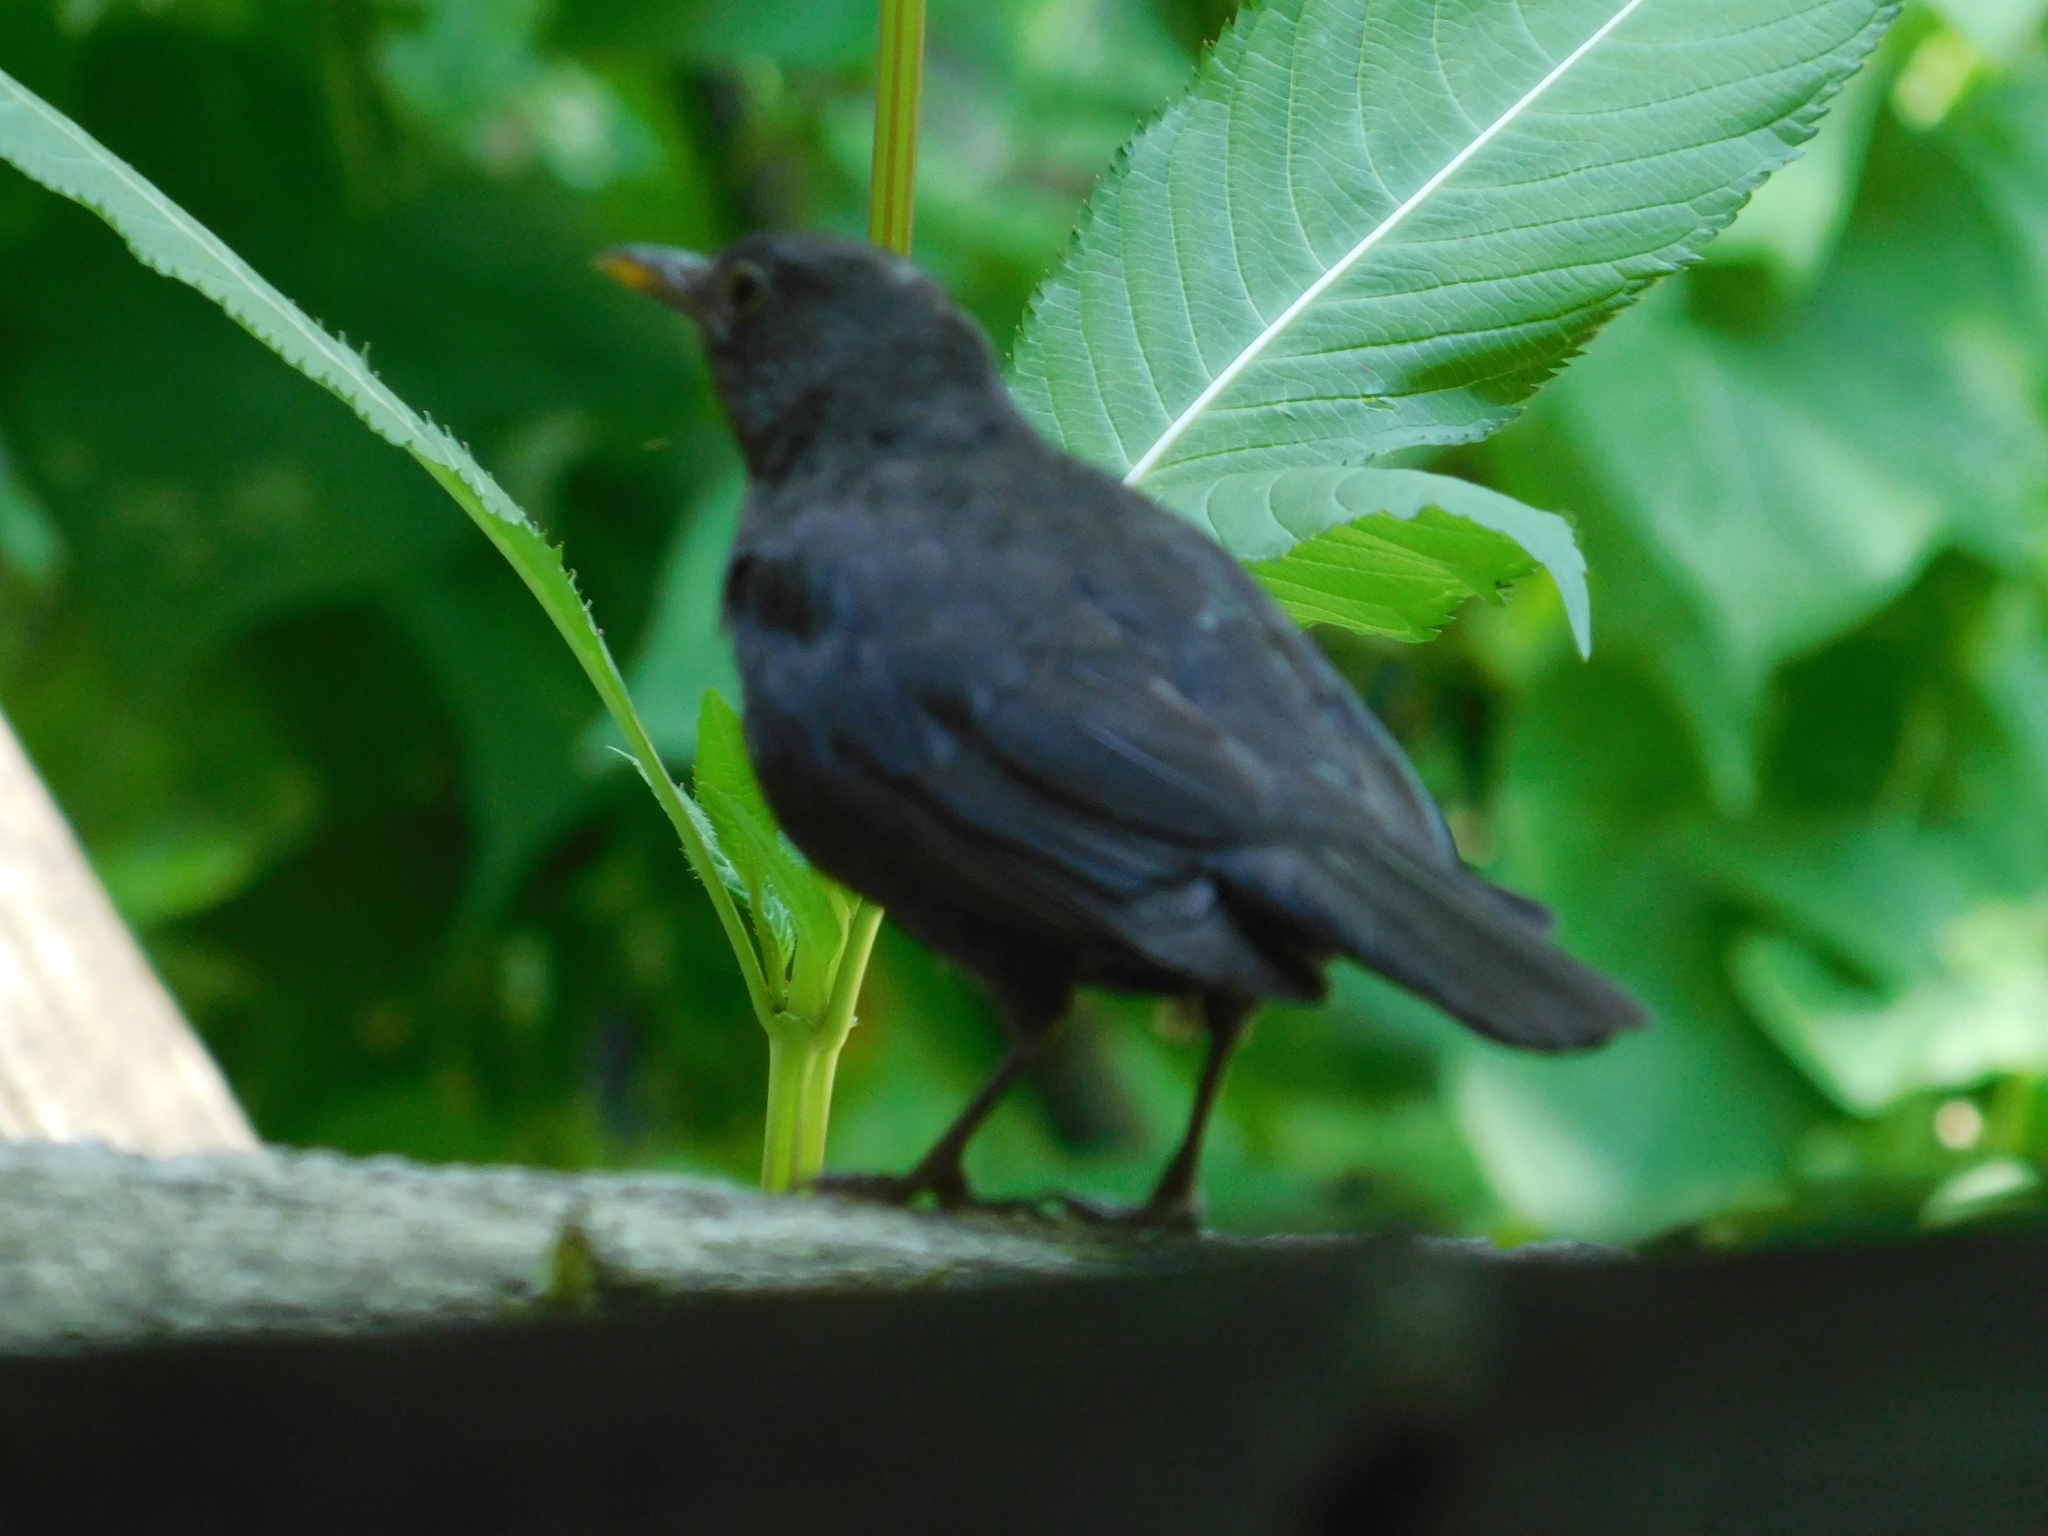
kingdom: Animalia
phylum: Chordata
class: Aves
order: Passeriformes
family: Turdidae
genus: Turdus
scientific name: Turdus merula
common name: Common blackbird
